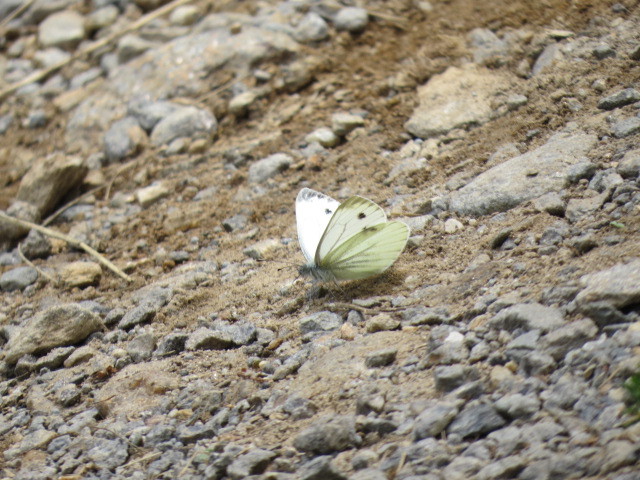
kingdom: Animalia
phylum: Arthropoda
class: Insecta
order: Lepidoptera
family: Pieridae
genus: Pieris
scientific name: Pieris napi
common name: Green-veined white
